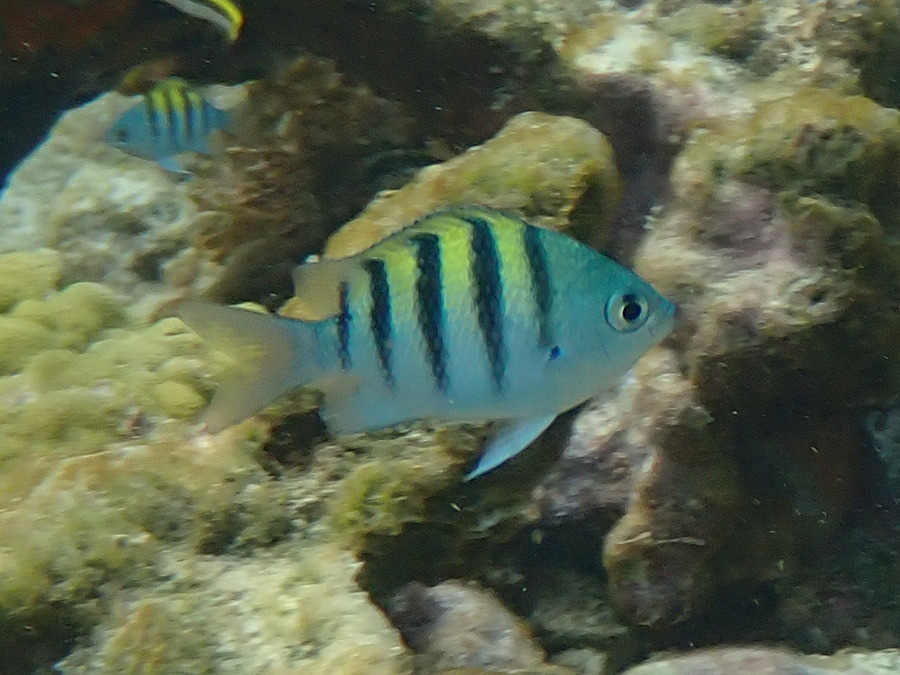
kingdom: Animalia
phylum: Chordata
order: Perciformes
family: Pomacentridae
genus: Abudefduf
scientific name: Abudefduf saxatilis
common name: Sergeant major
